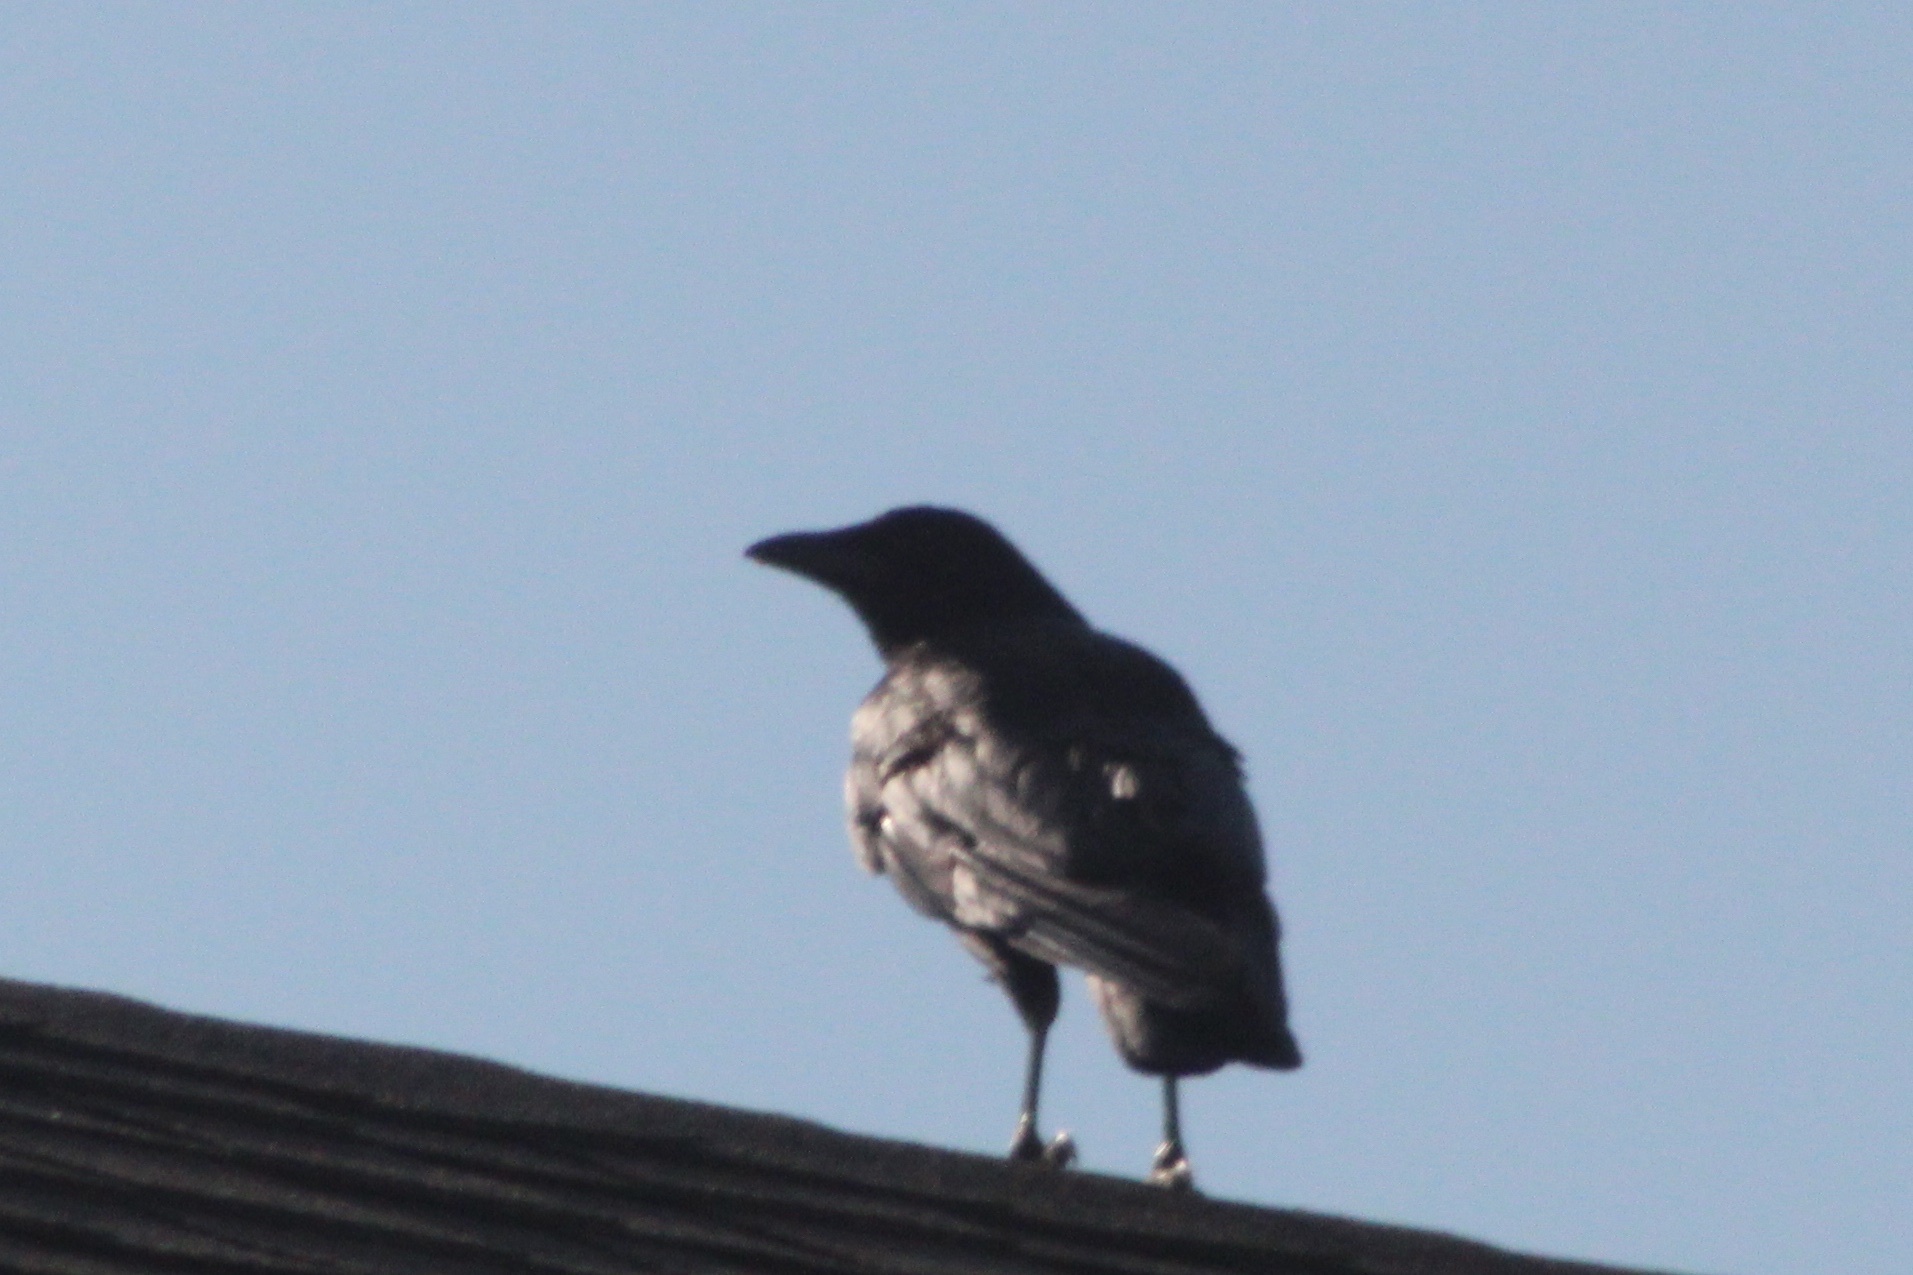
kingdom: Animalia
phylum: Chordata
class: Aves
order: Passeriformes
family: Corvidae
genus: Corvus
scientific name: Corvus brachyrhynchos
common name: American crow
